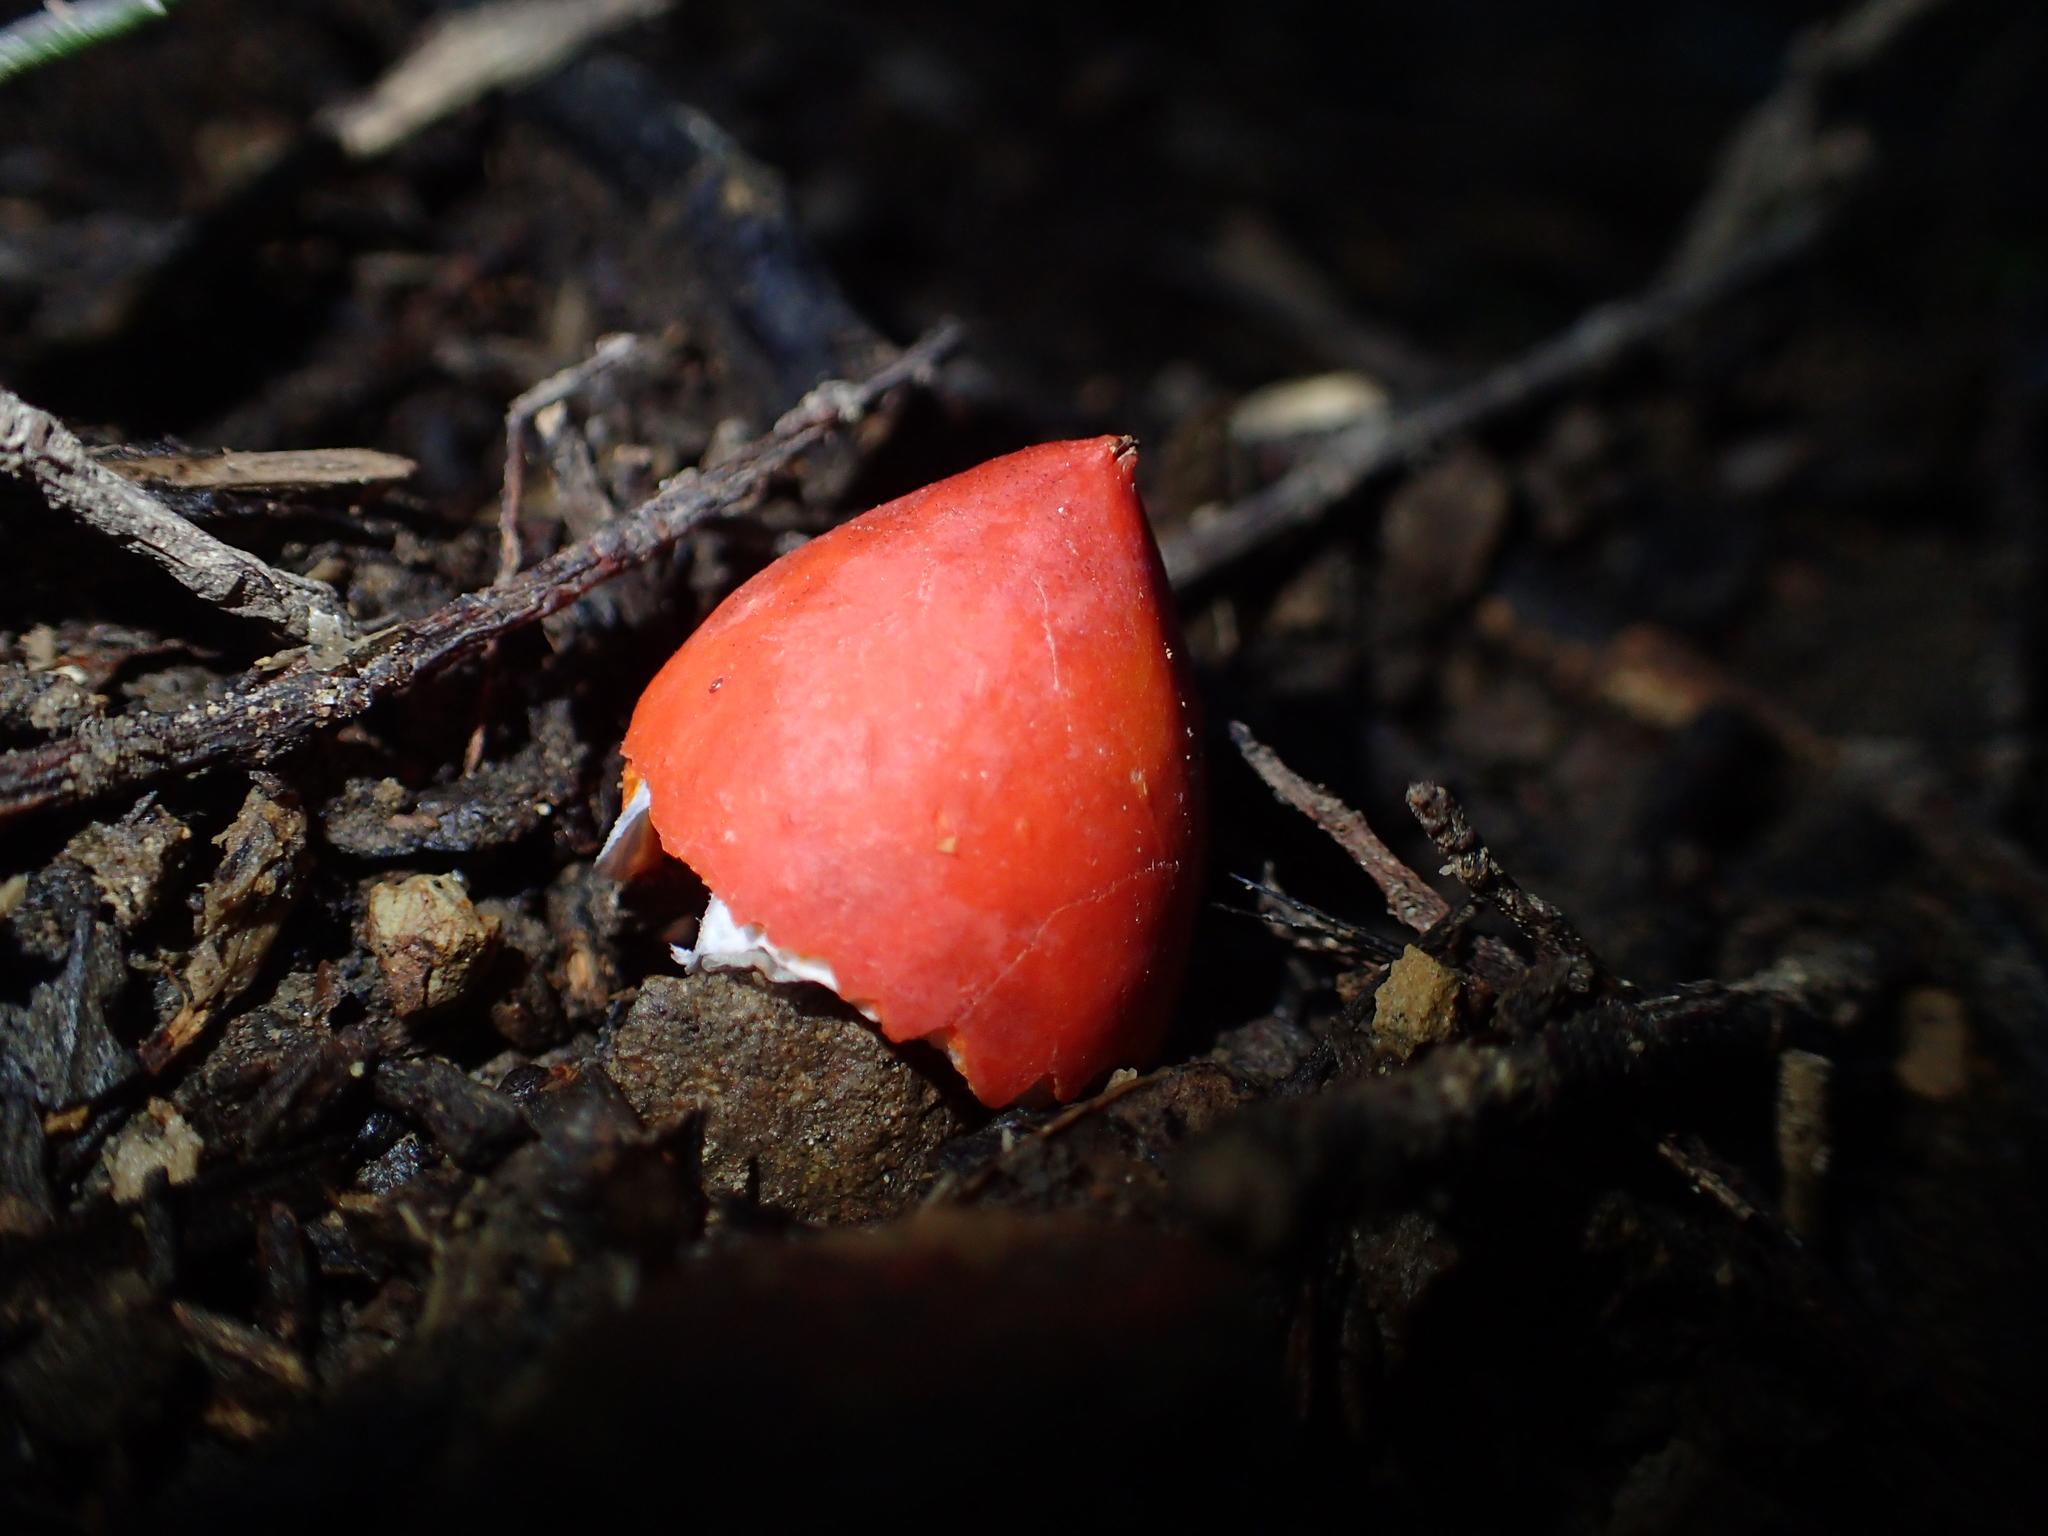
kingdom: Plantae
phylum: Tracheophyta
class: Magnoliopsida
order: Malpighiales
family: Passifloraceae
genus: Passiflora
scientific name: Passiflora tetrandra
